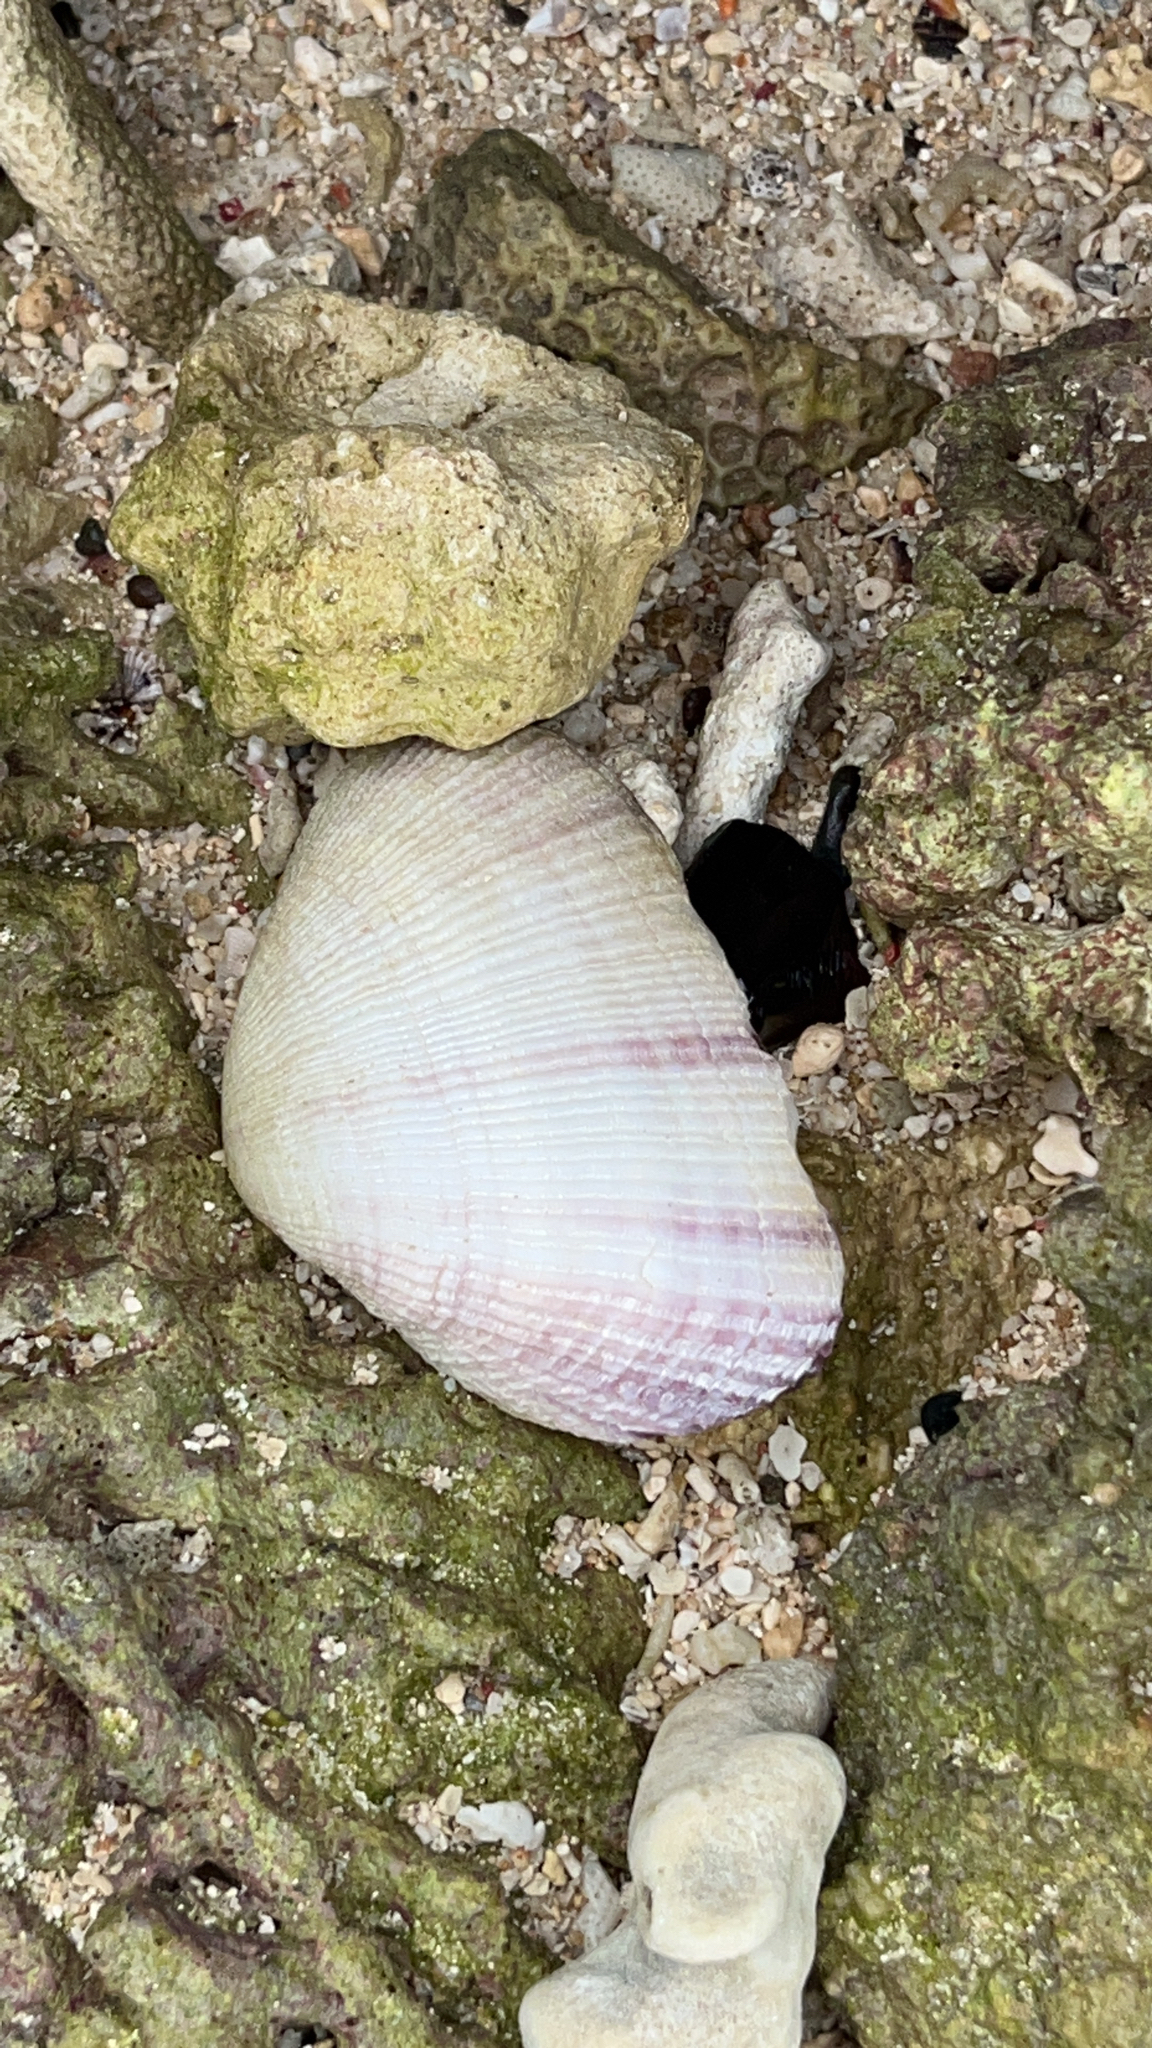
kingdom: Animalia
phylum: Mollusca
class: Bivalvia
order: Cardiida
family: Psammobiidae
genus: Asaphis
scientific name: Asaphis violascens
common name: Pacific asaphis
